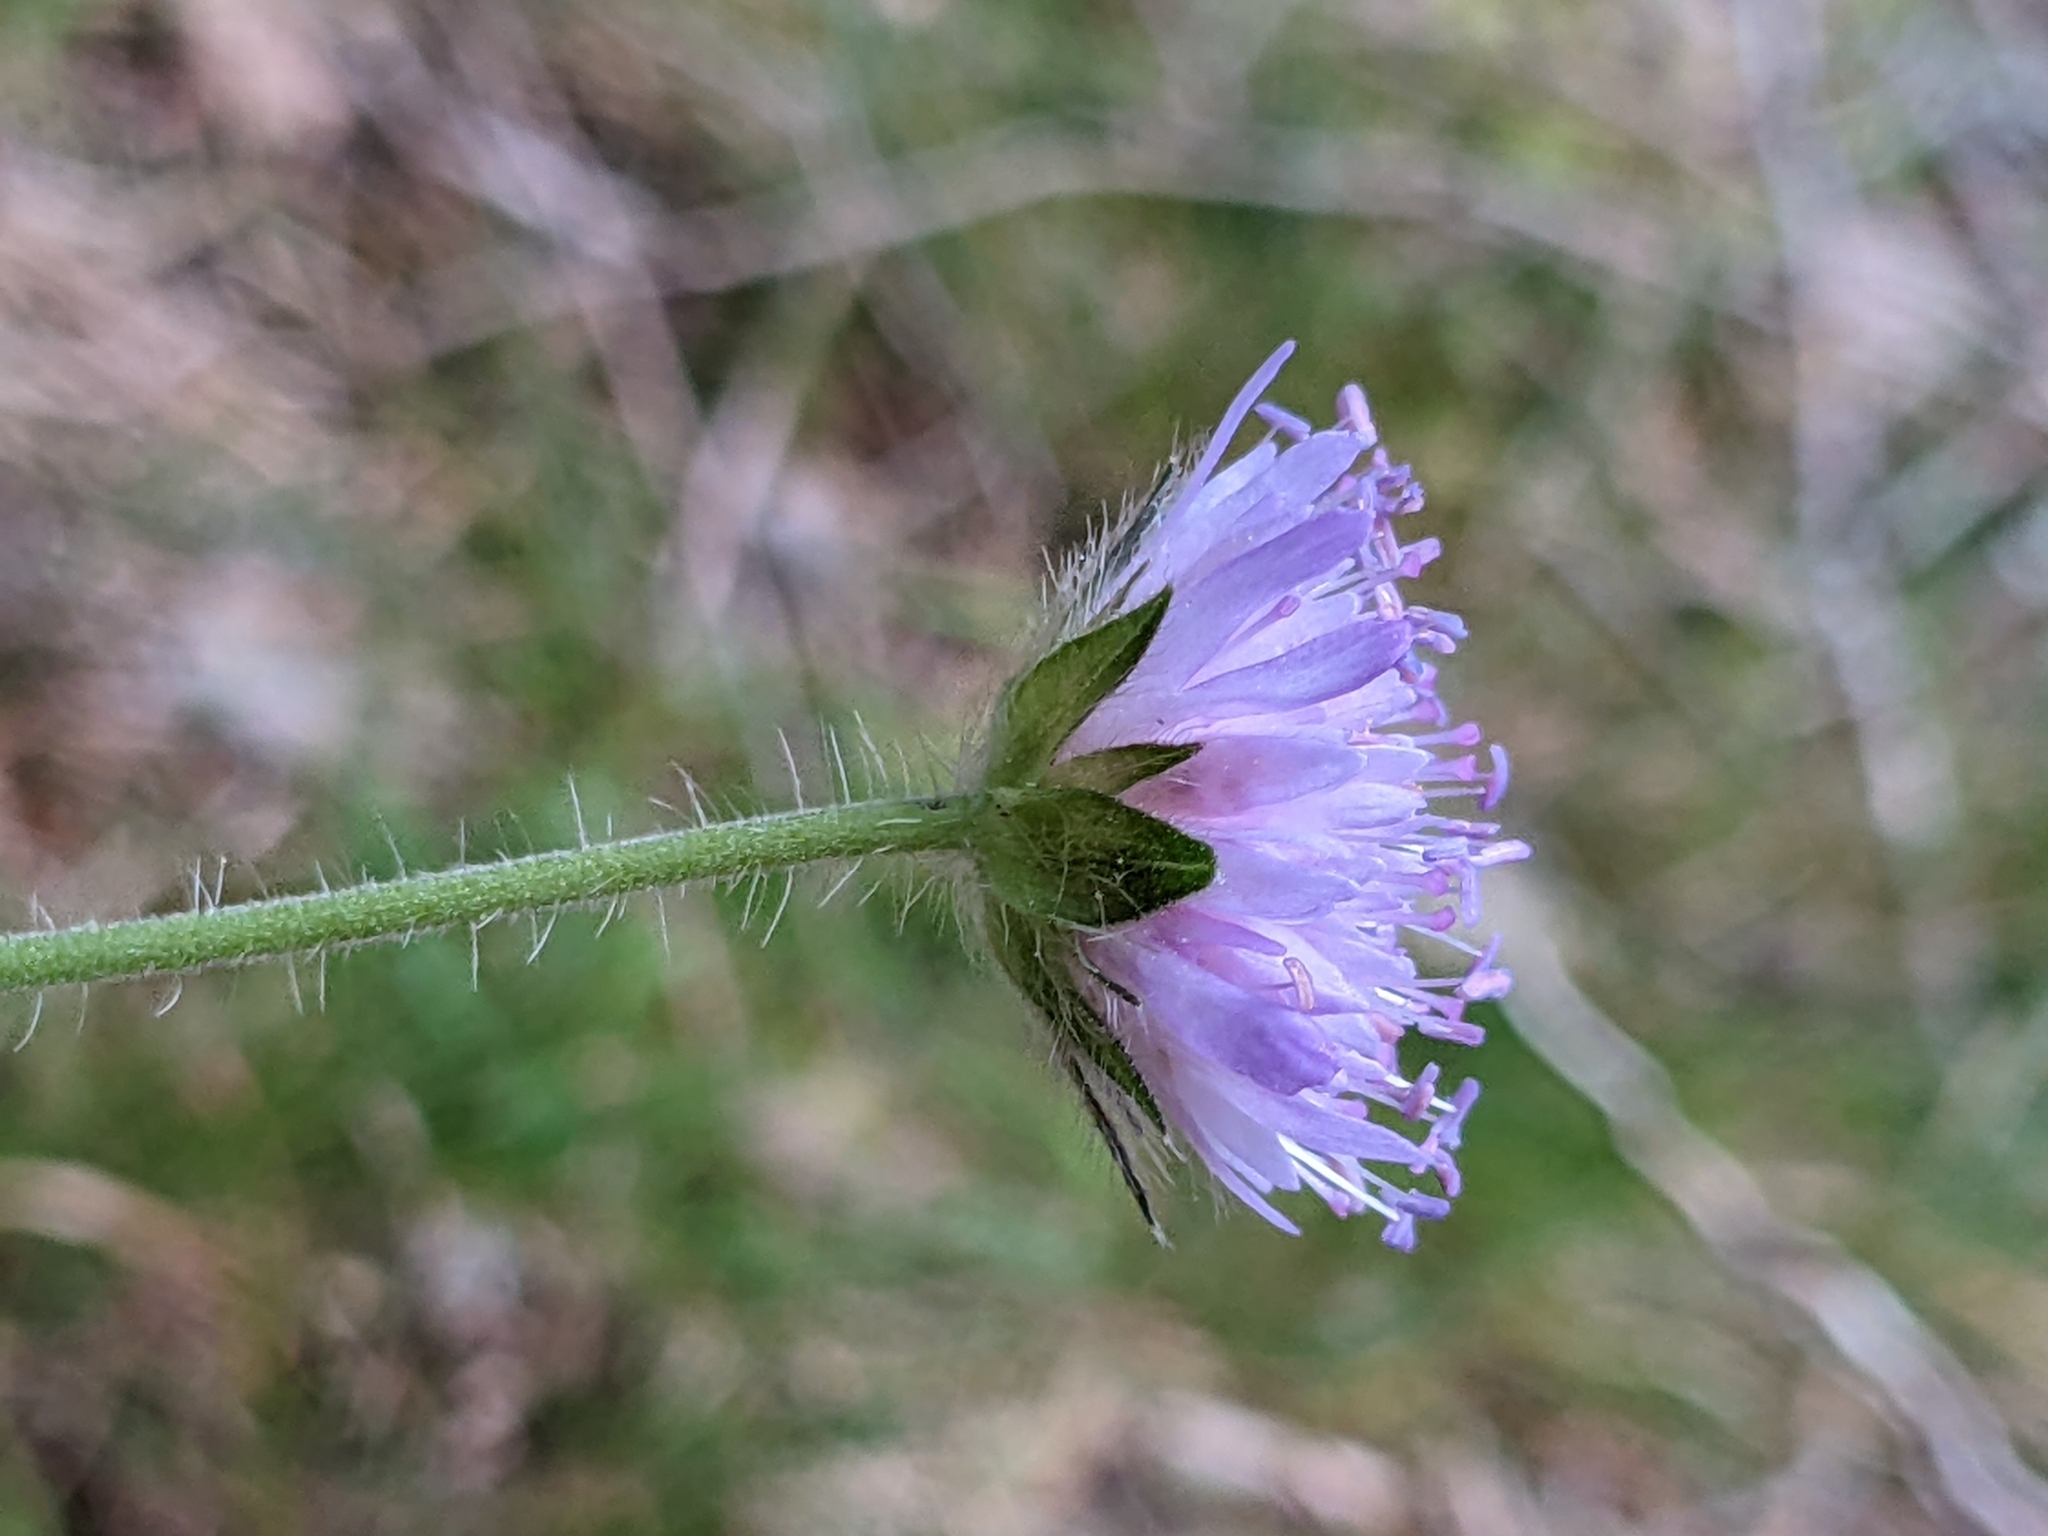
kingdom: Plantae
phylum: Tracheophyta
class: Magnoliopsida
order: Dipsacales
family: Caprifoliaceae
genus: Knautia
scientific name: Knautia arvensis
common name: Field scabiosa
